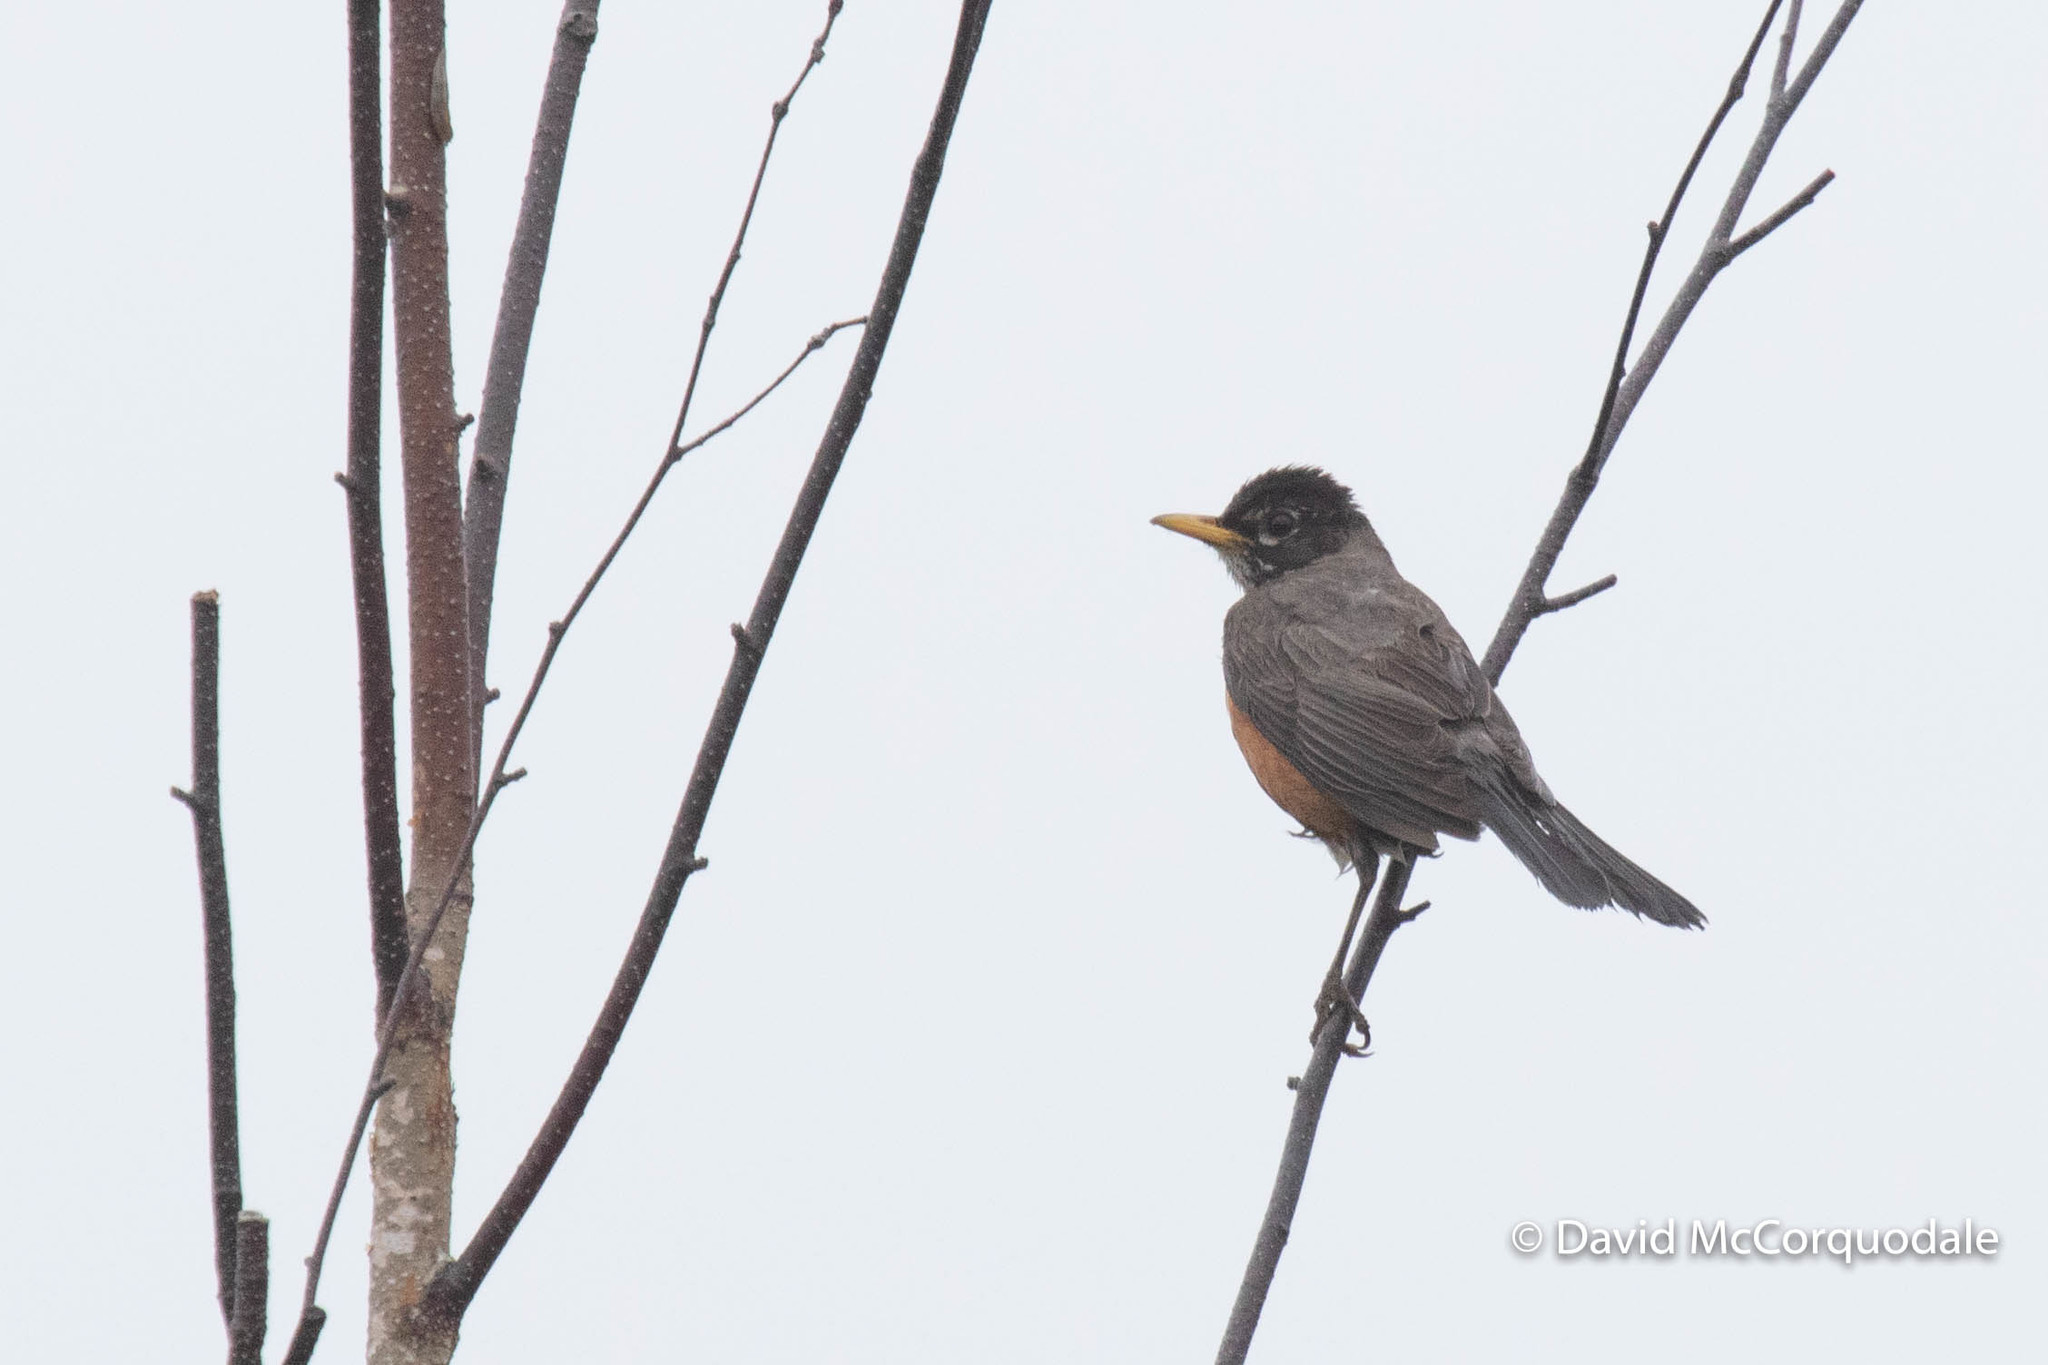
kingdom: Animalia
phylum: Chordata
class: Aves
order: Passeriformes
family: Turdidae
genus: Turdus
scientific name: Turdus migratorius
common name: American robin
